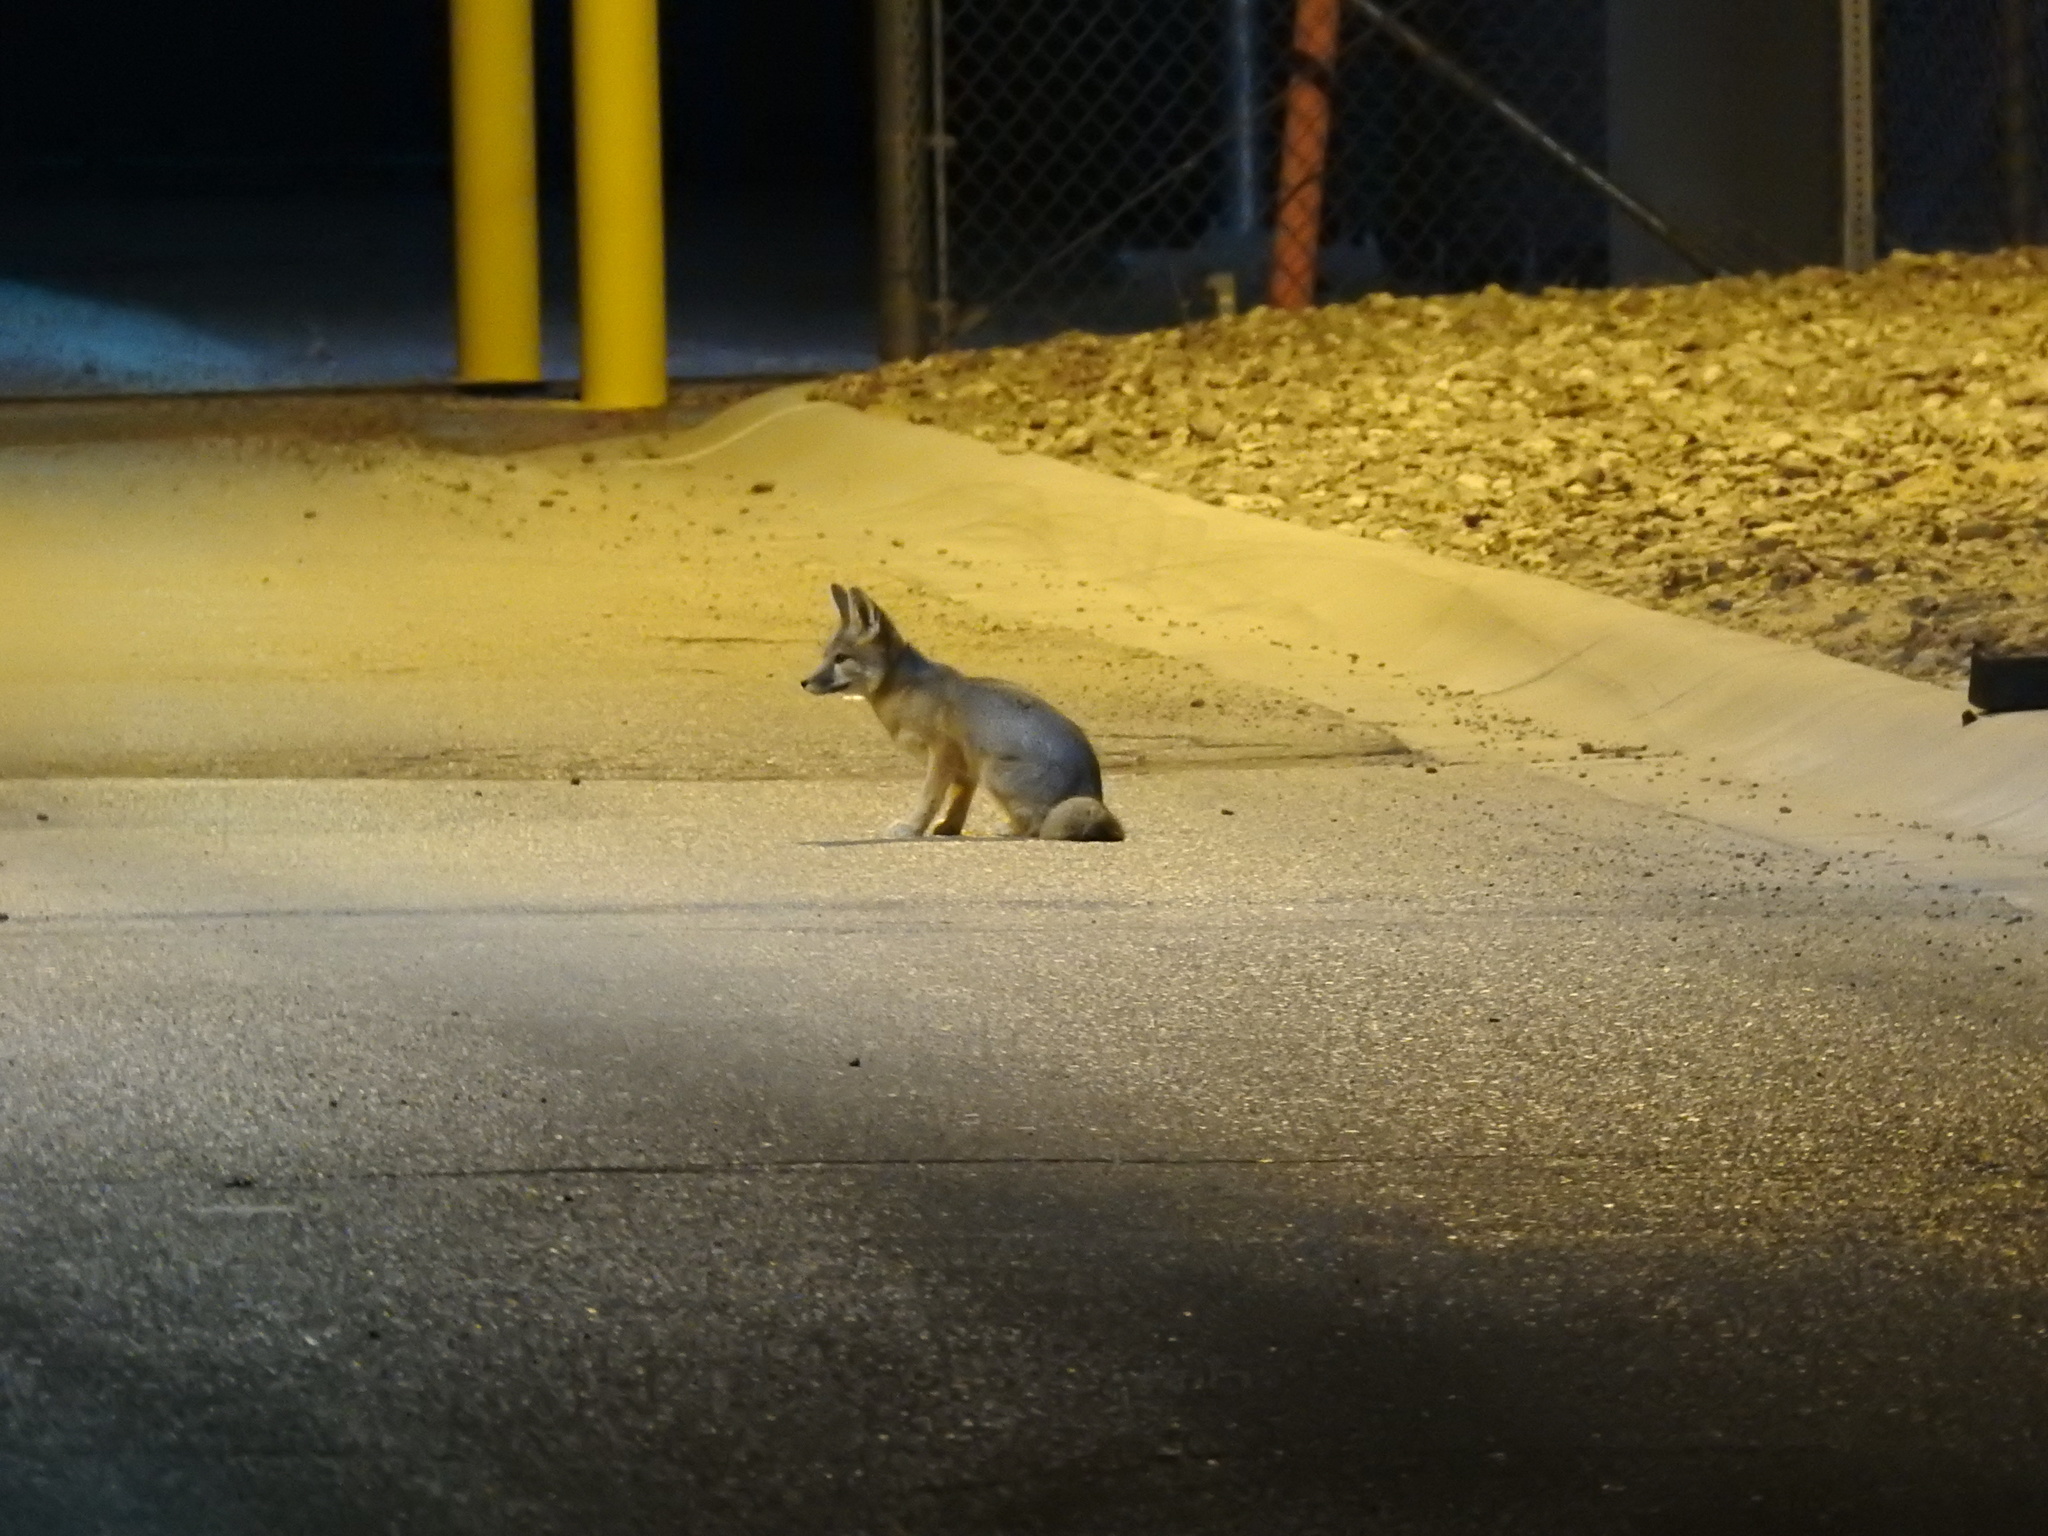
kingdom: Animalia
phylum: Chordata
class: Mammalia
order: Carnivora
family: Canidae
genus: Urocyon
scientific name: Urocyon cinereoargenteus
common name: Gray fox
